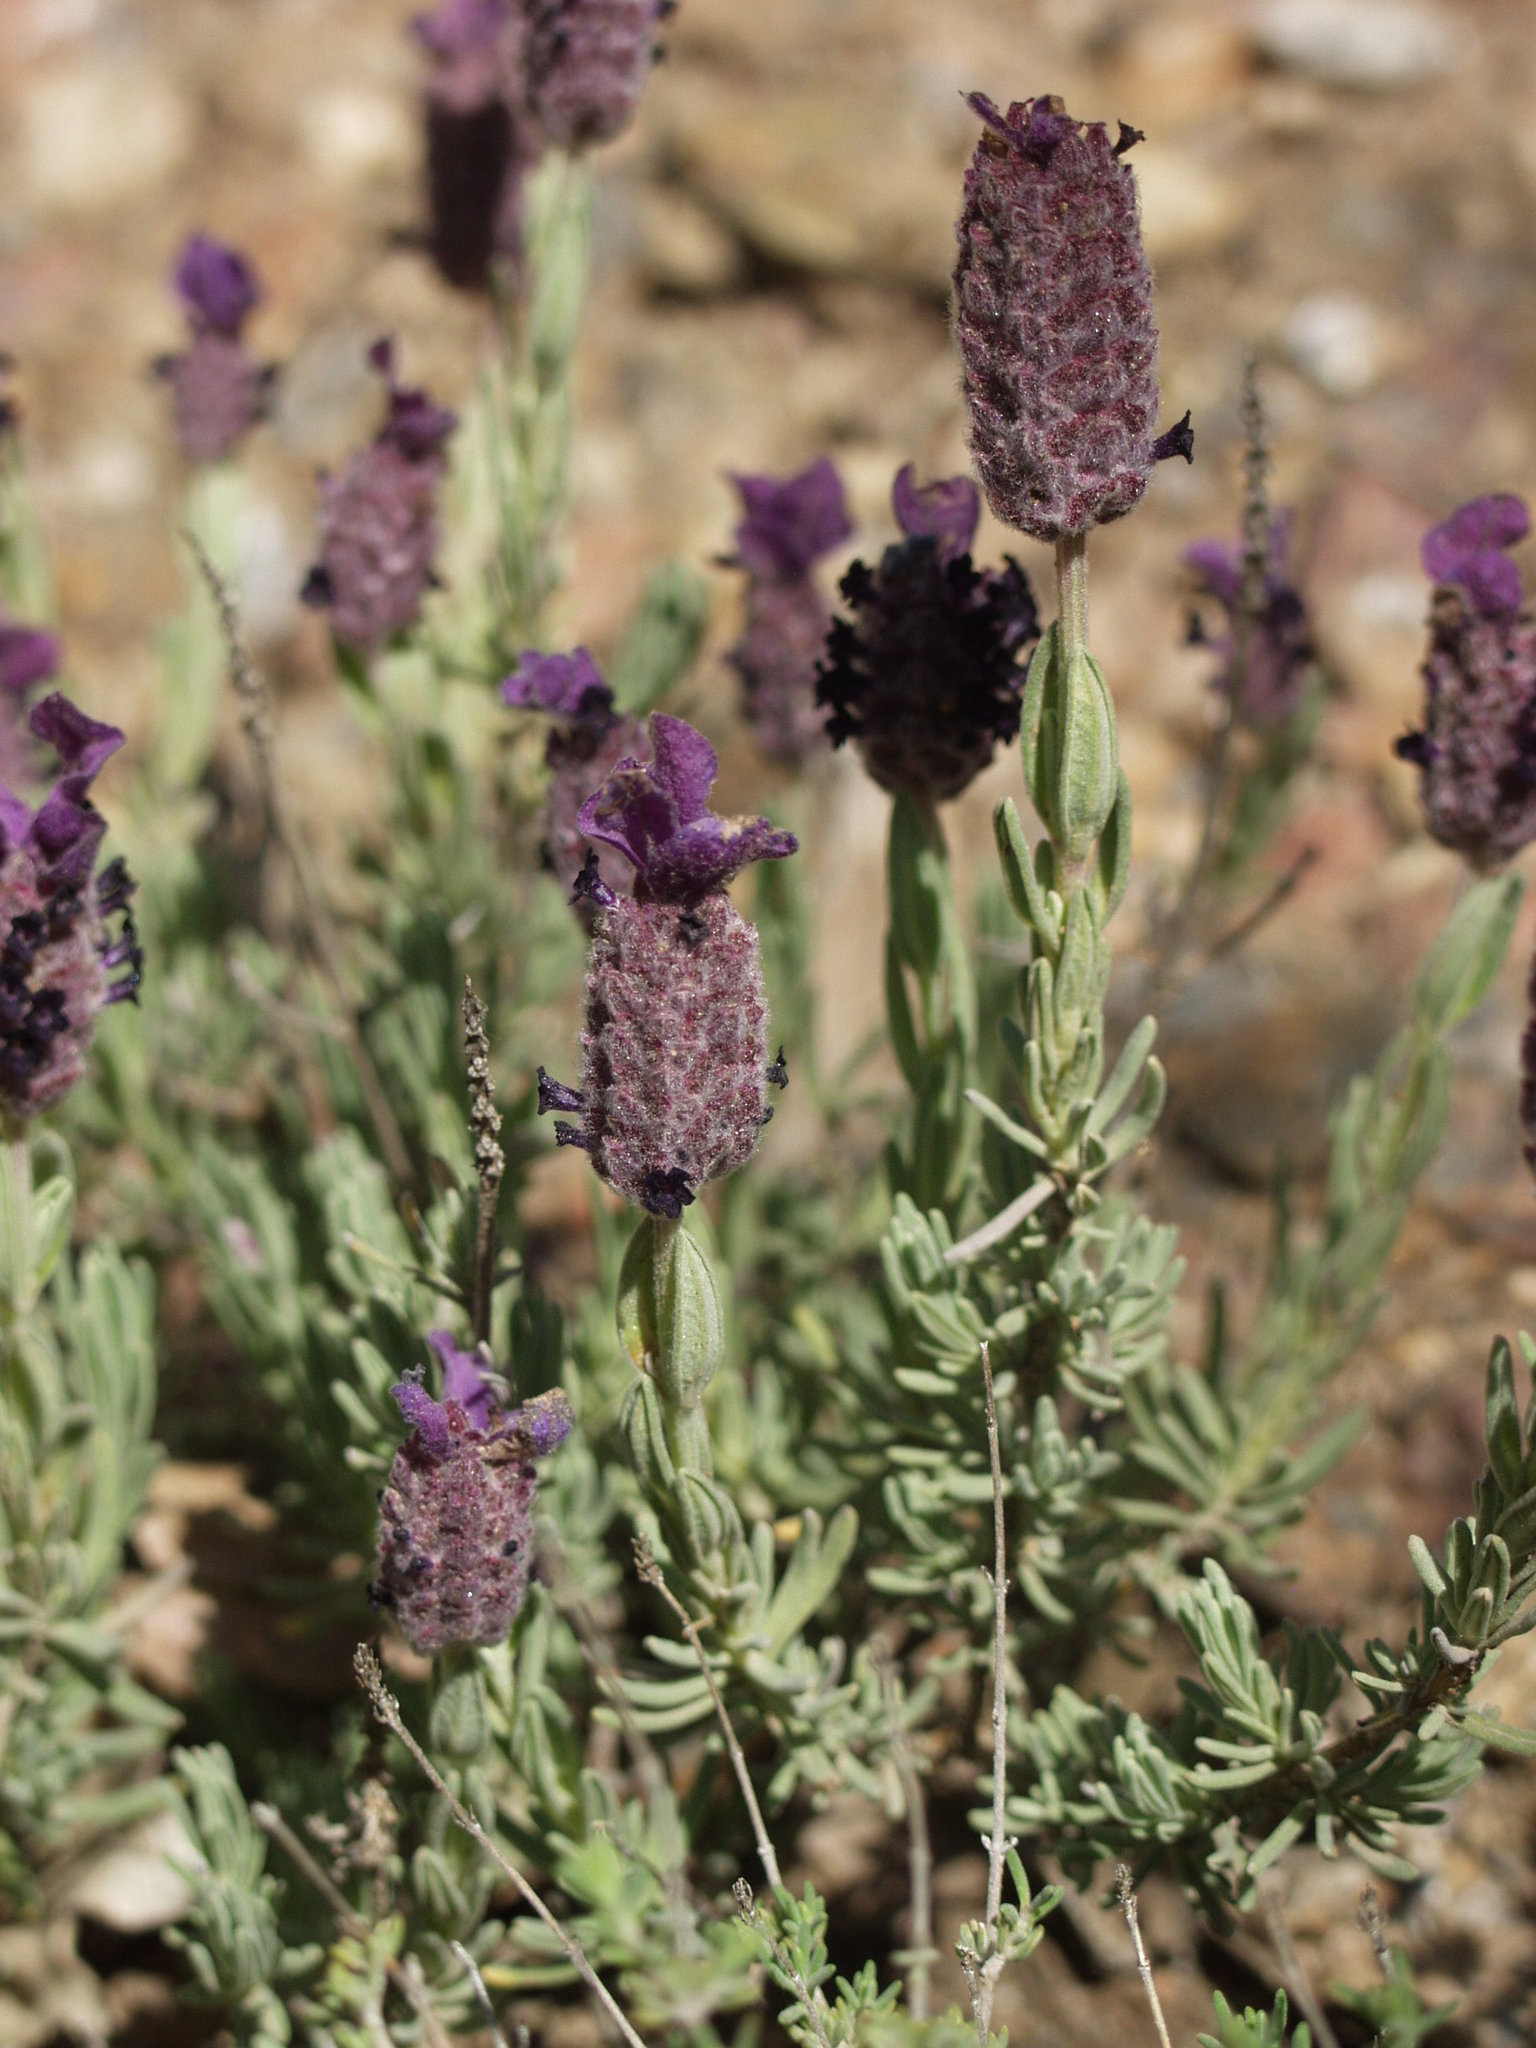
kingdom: Plantae
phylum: Tracheophyta
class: Magnoliopsida
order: Lamiales
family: Lamiaceae
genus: Lavandula
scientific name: Lavandula stoechas
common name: French lavender
